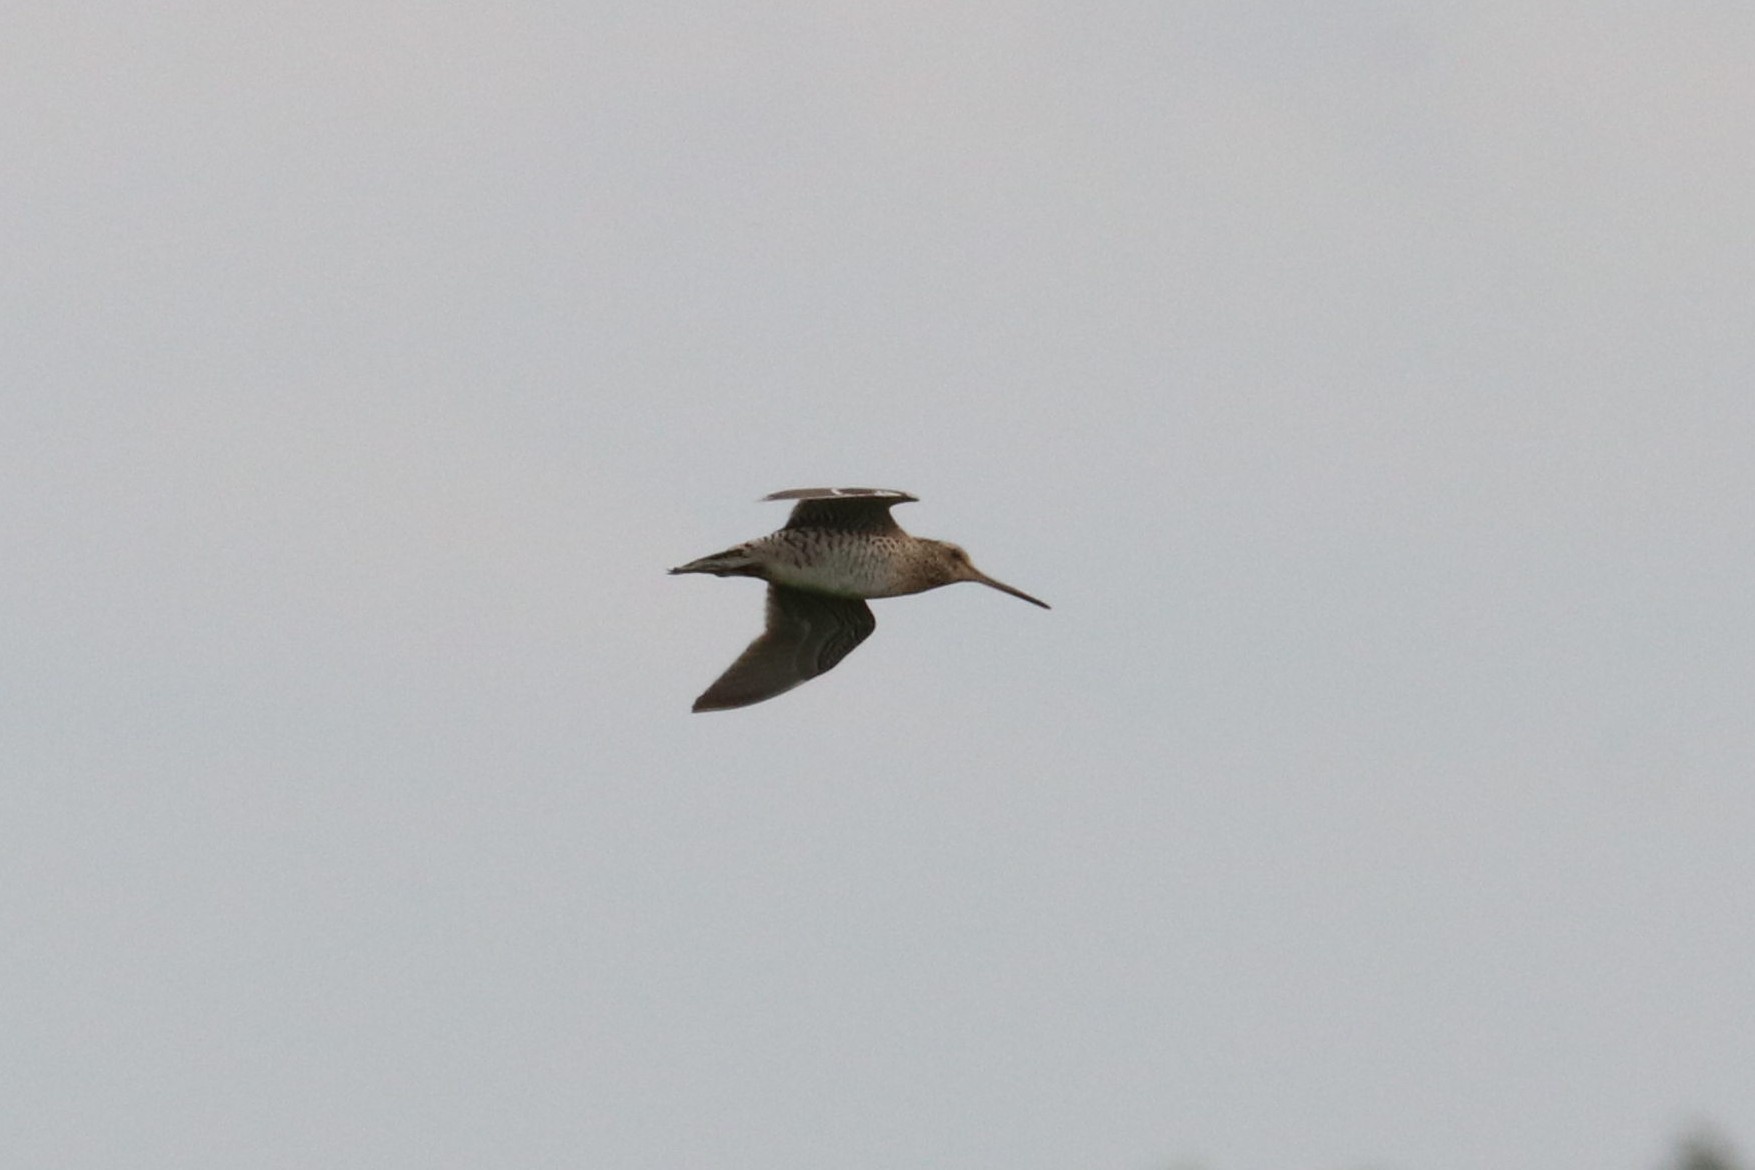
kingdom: Animalia
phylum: Chordata
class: Aves
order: Charadriiformes
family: Scolopacidae
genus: Gallinago
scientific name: Gallinago media
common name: Great snipe
